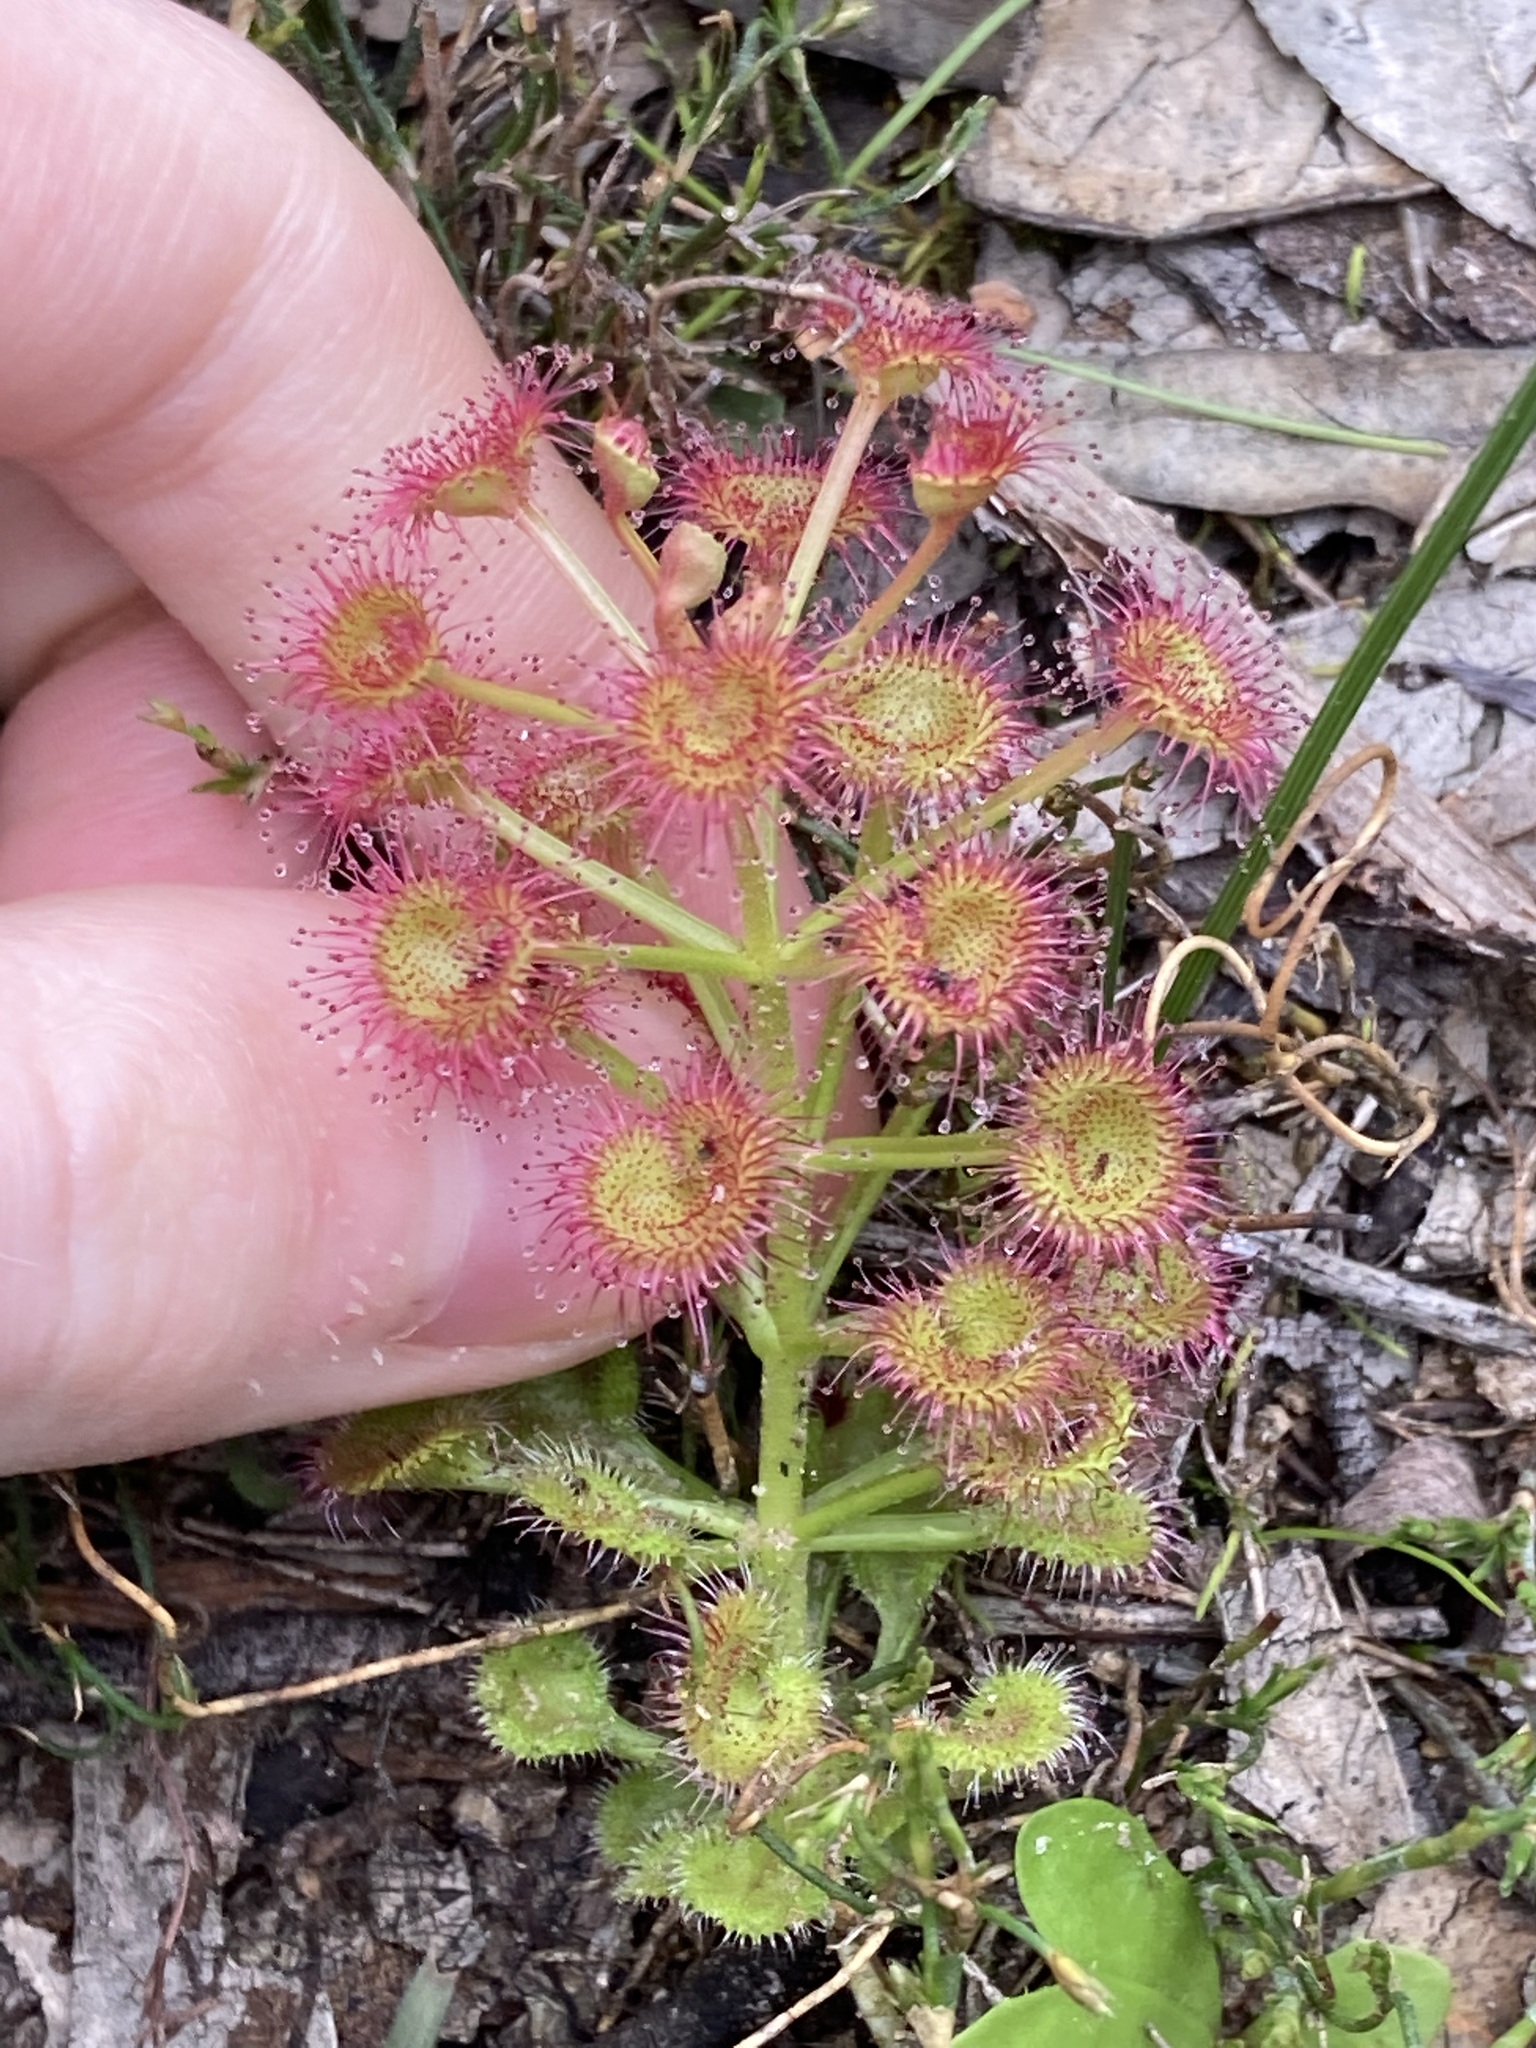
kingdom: Plantae
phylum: Tracheophyta
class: Magnoliopsida
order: Caryophyllales
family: Droseraceae
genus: Drosera
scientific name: Drosera stolonifera
